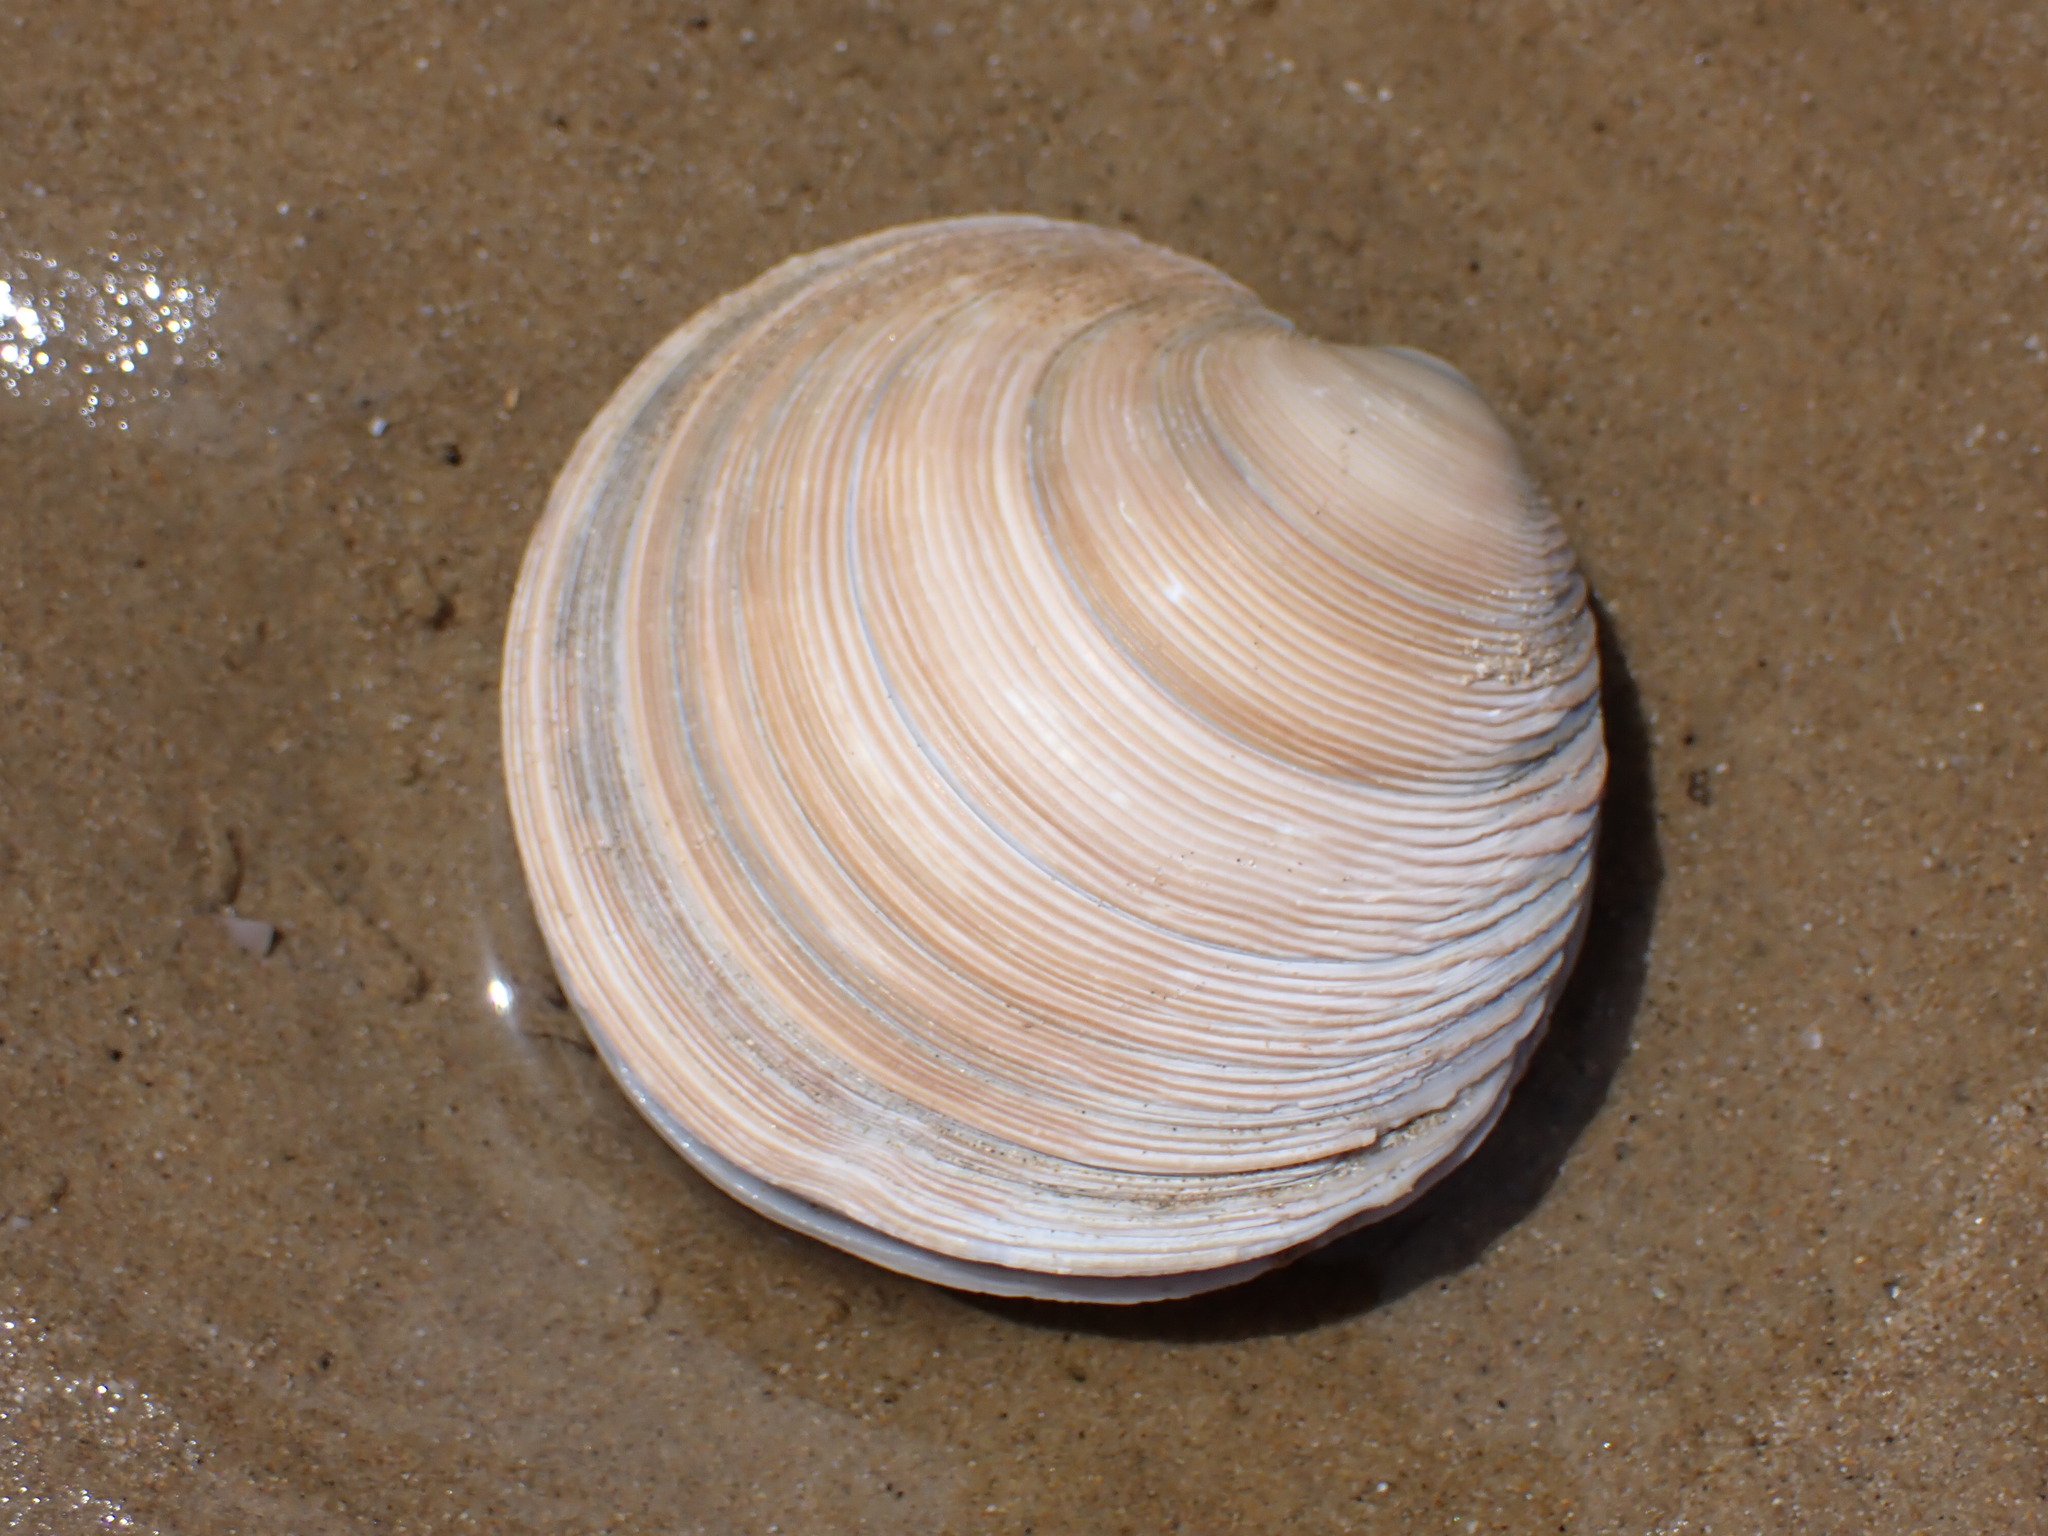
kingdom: Animalia
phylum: Mollusca
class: Bivalvia
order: Venerida
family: Veneridae
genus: Dosinia
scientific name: Dosinia anus
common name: Old-woman dosinia
